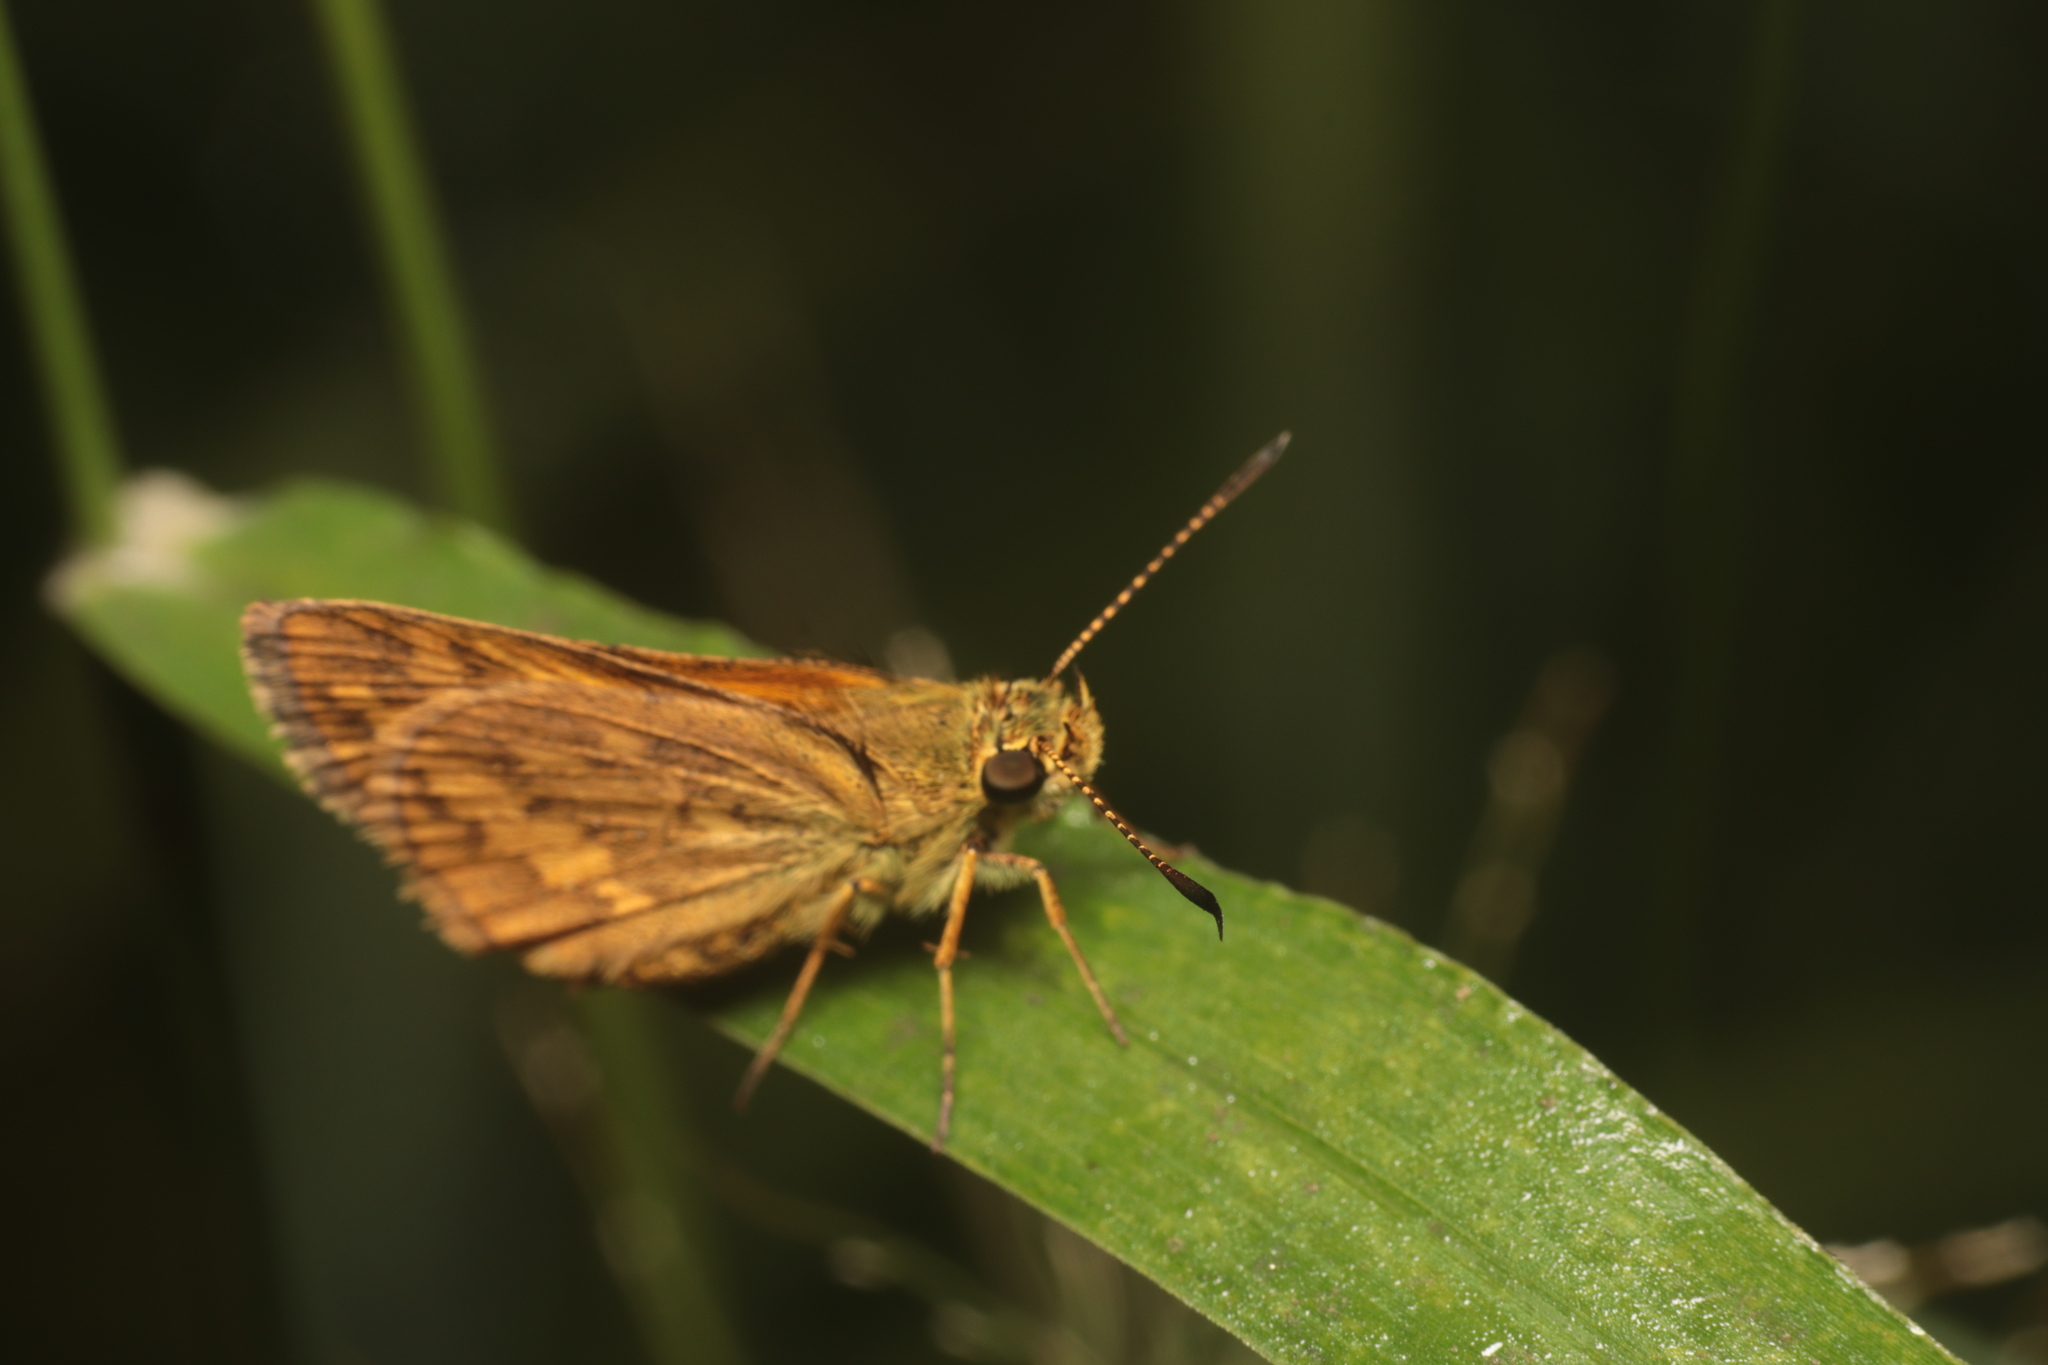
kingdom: Animalia
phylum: Arthropoda
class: Insecta
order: Lepidoptera
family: Hesperiidae
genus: Suniana
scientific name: Suniana sunias
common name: Wide-brand grass-dart
